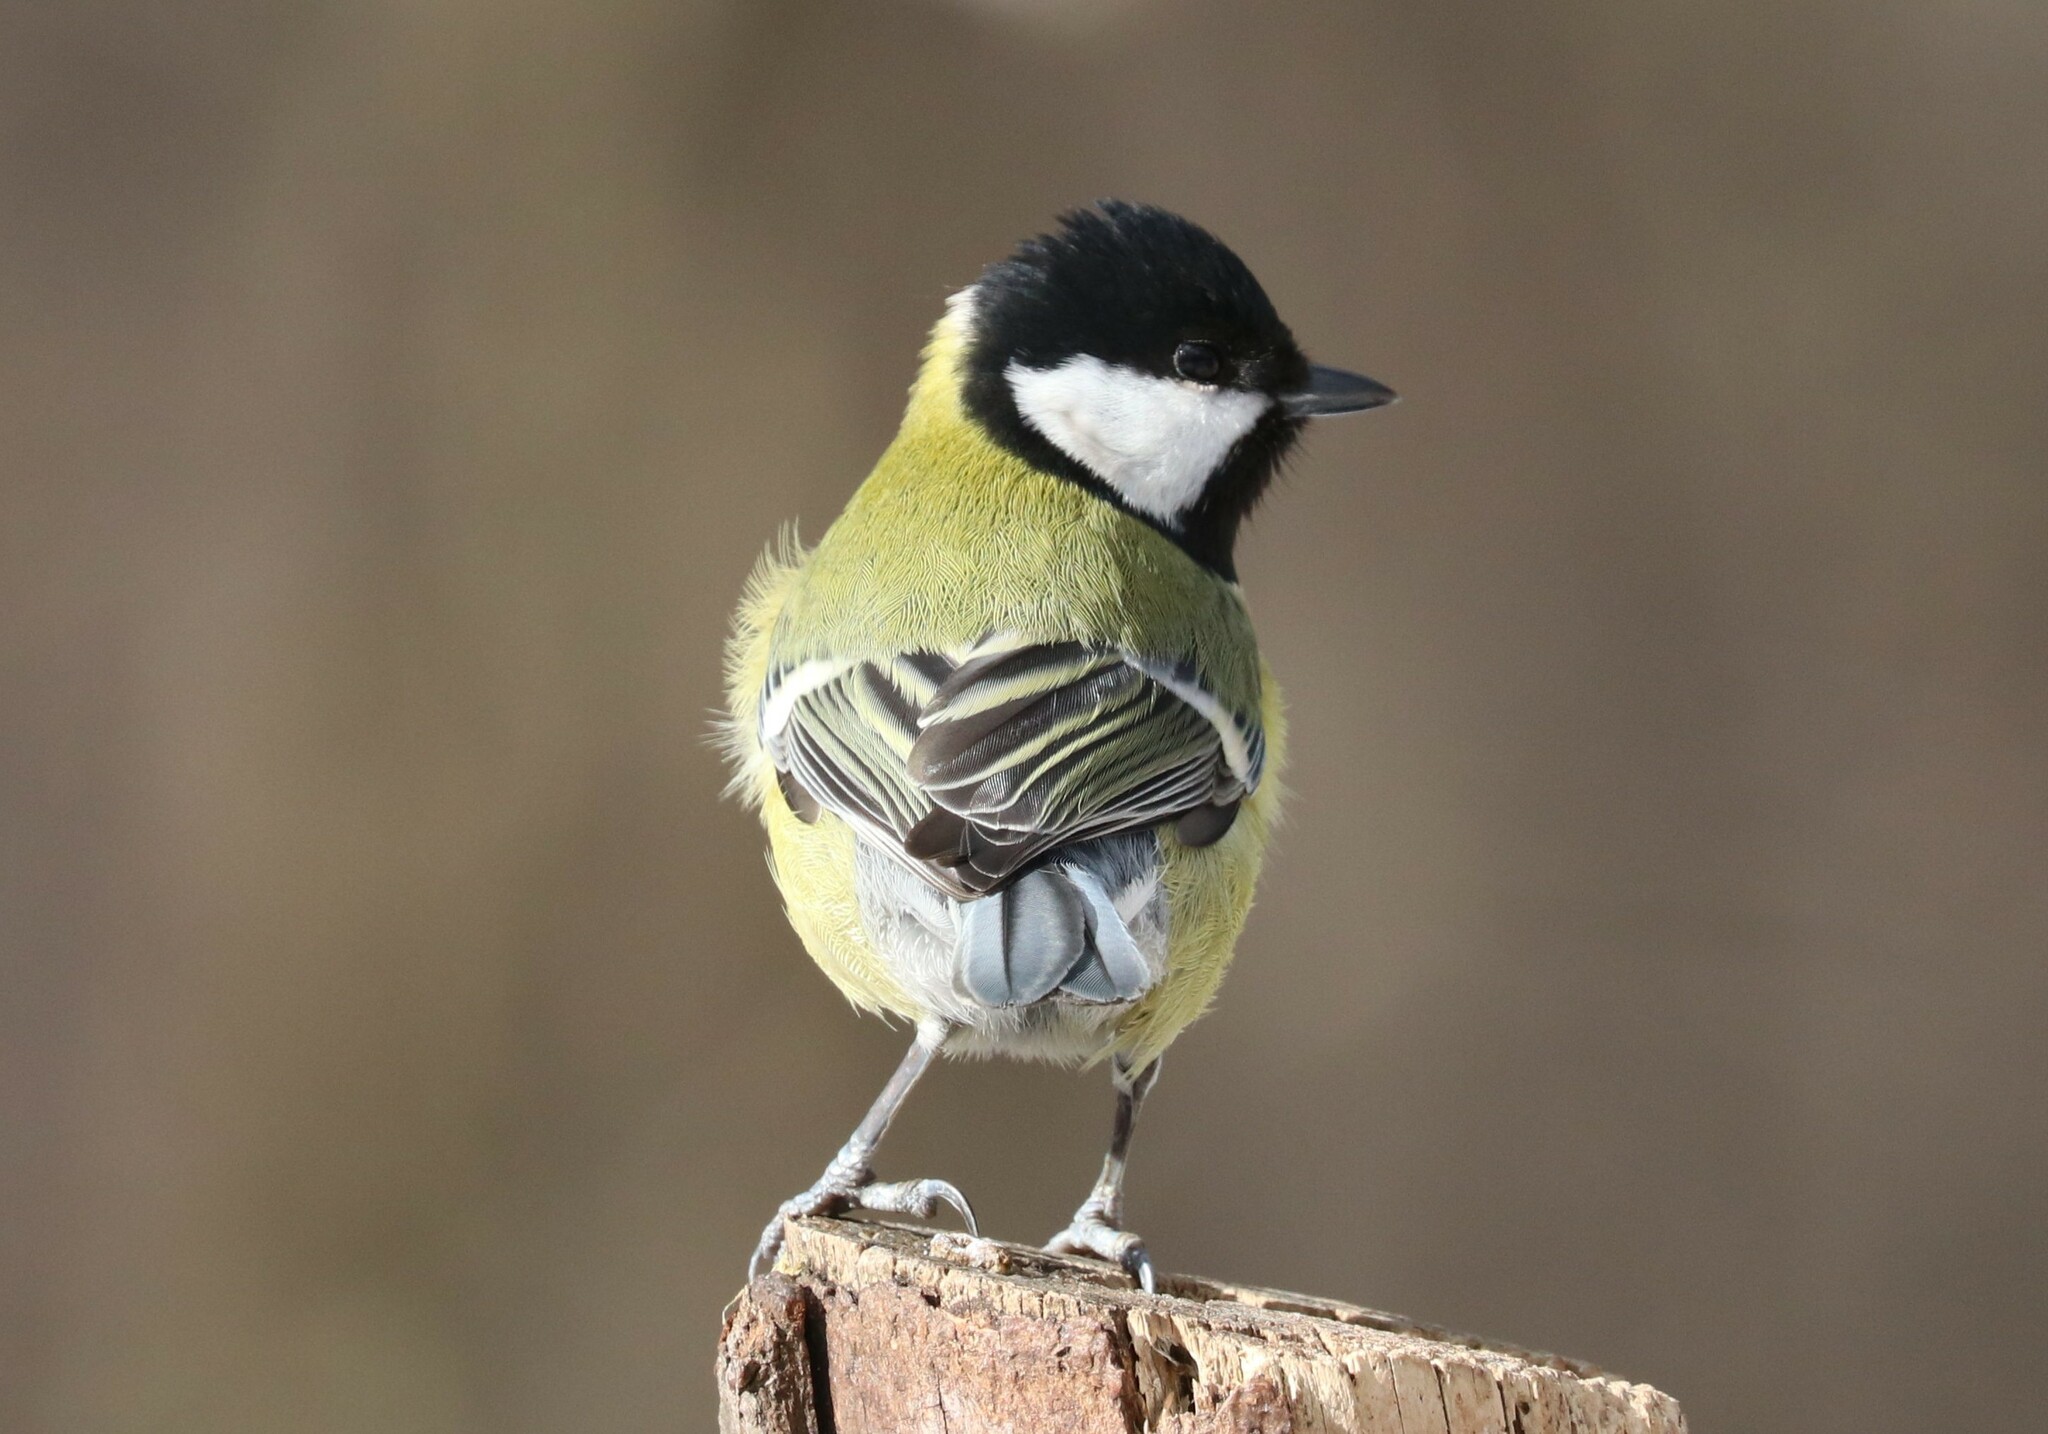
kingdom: Animalia
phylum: Chordata
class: Aves
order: Passeriformes
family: Paridae
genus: Parus
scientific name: Parus major
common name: Great tit
